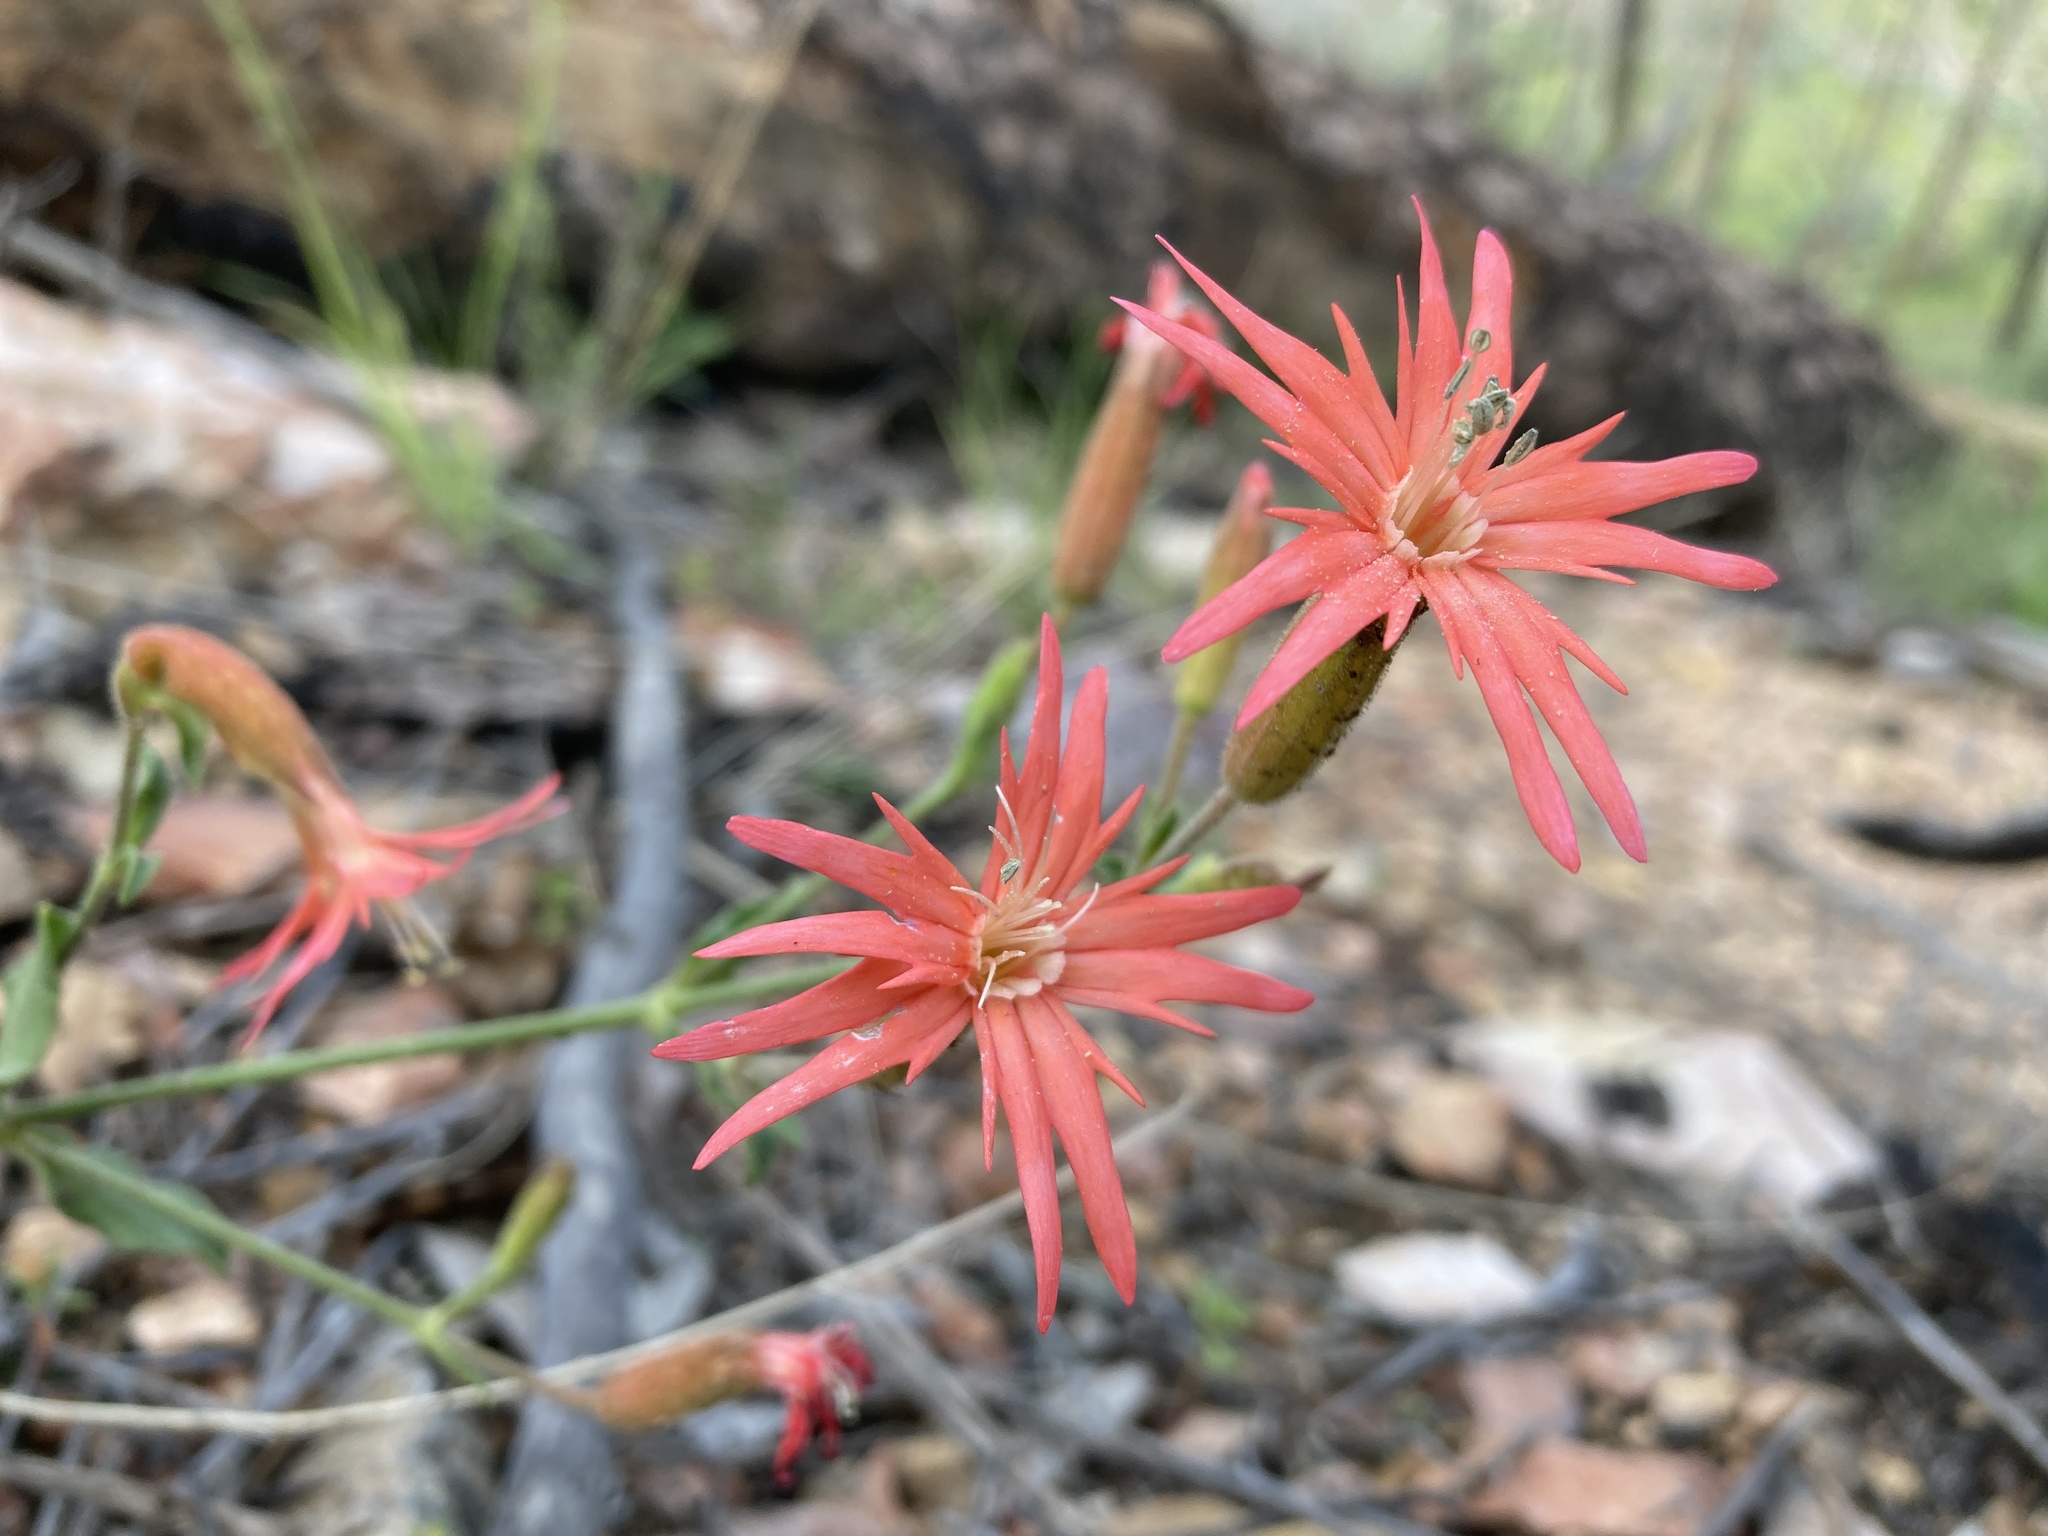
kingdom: Plantae
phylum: Tracheophyta
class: Magnoliopsida
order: Caryophyllales
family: Caryophyllaceae
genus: Silene
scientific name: Silene laciniata
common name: Indian-pink
